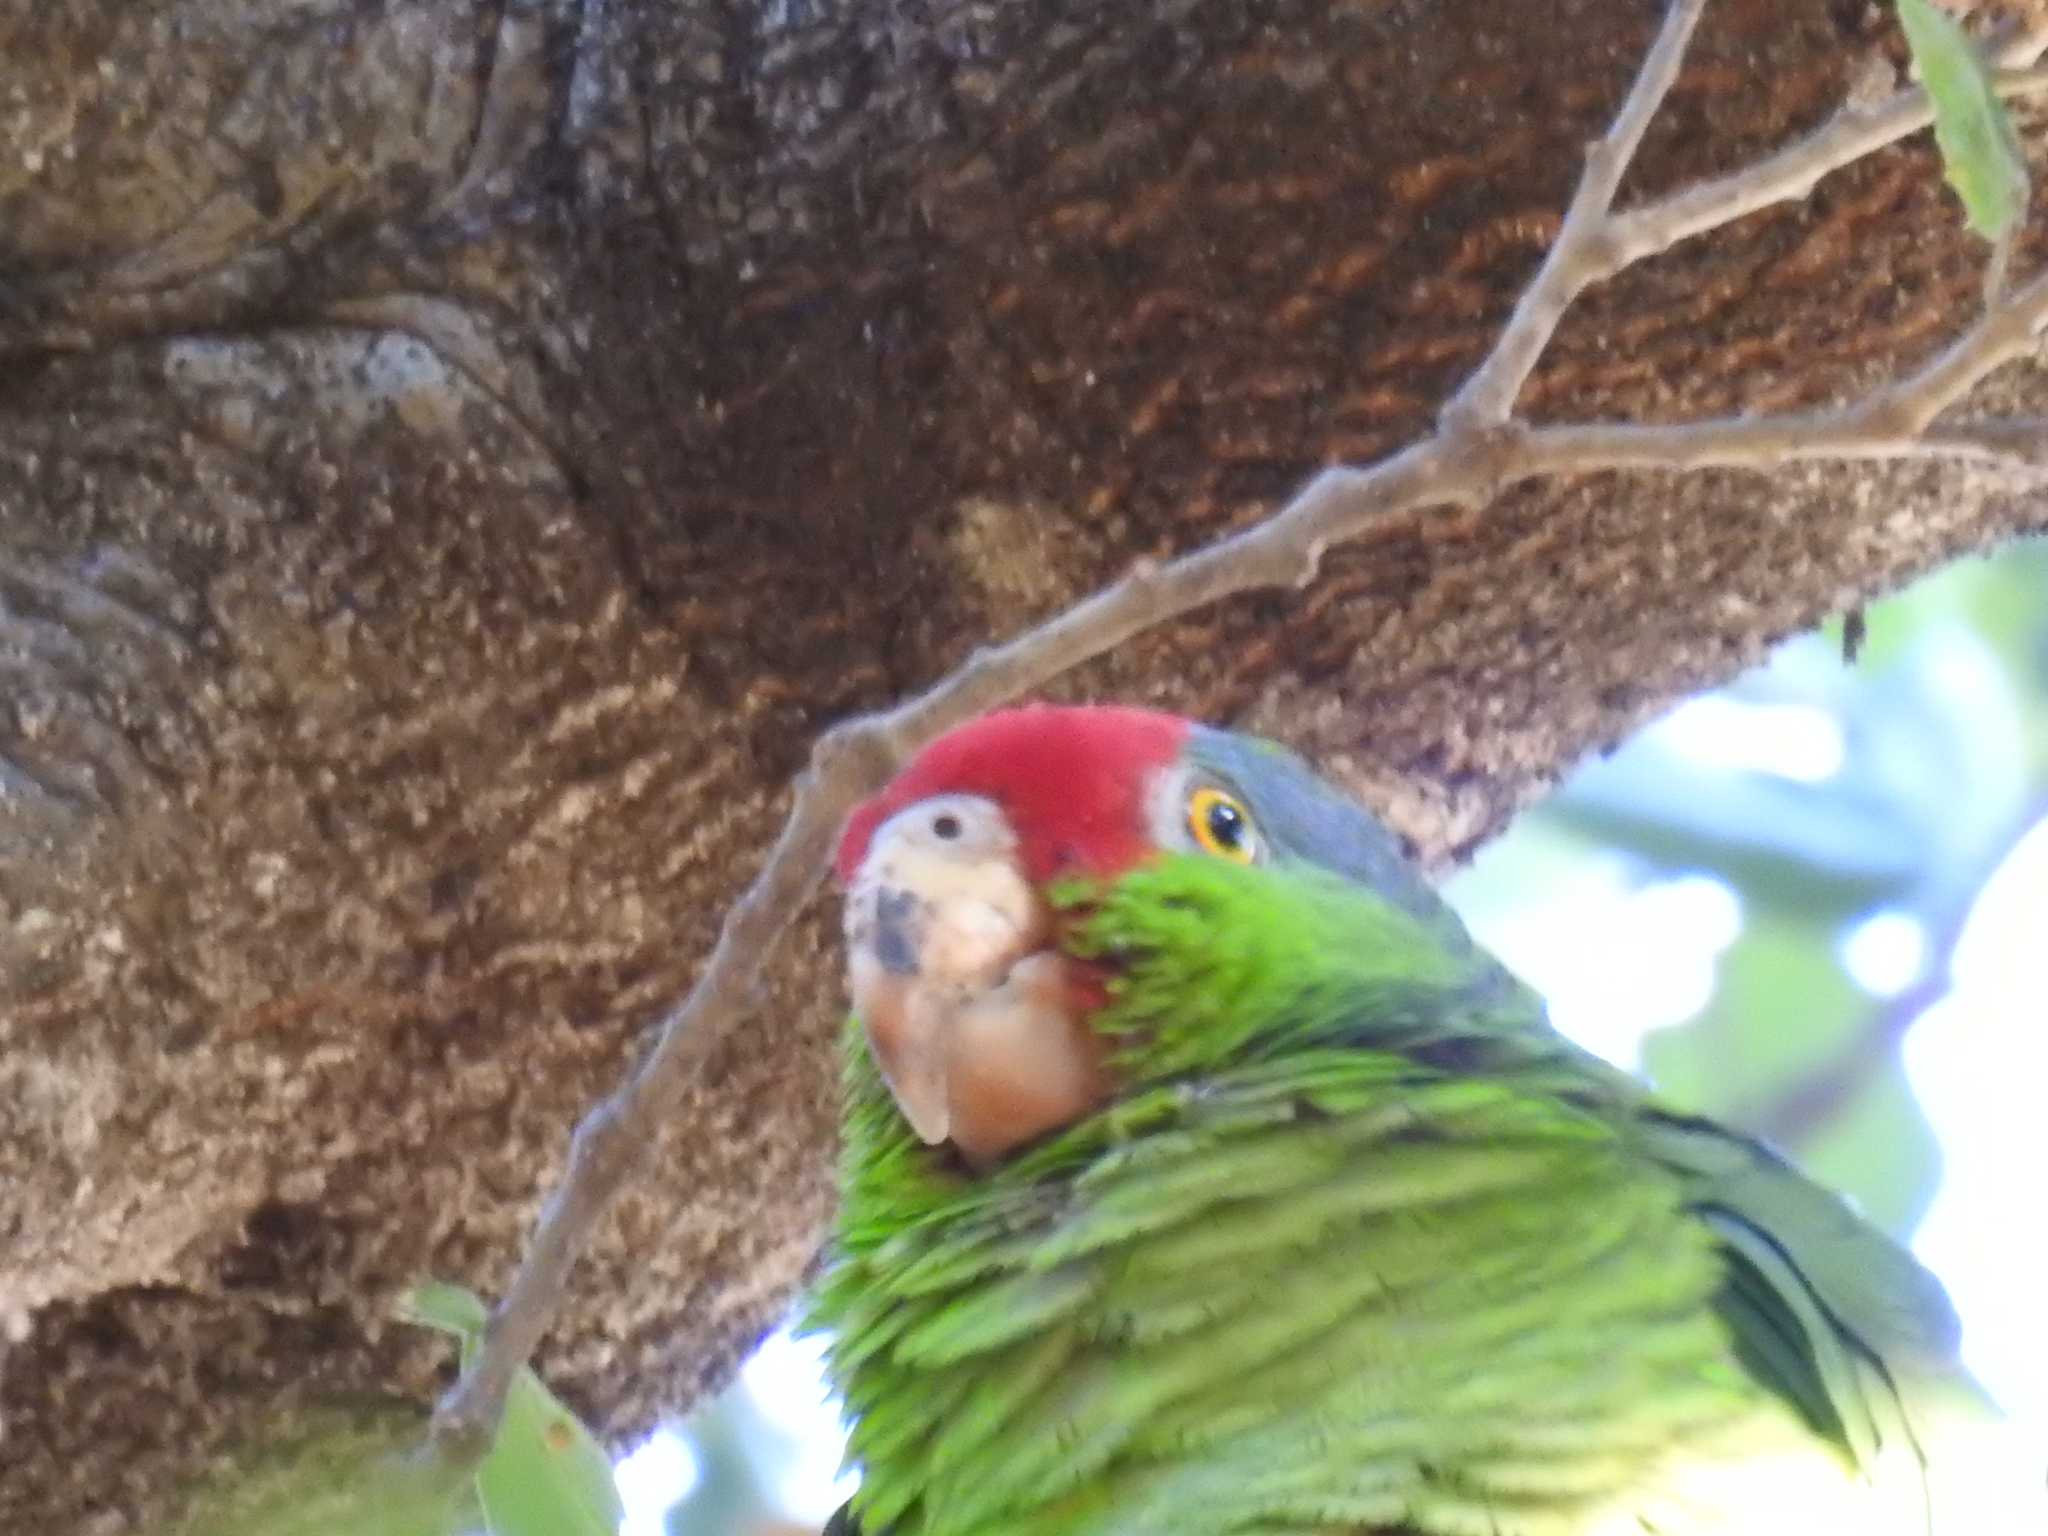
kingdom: Animalia
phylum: Chordata
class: Aves
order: Psittaciformes
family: Psittacidae
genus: Amazona
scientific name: Amazona viridigenalis
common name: Red-crowned amazon
